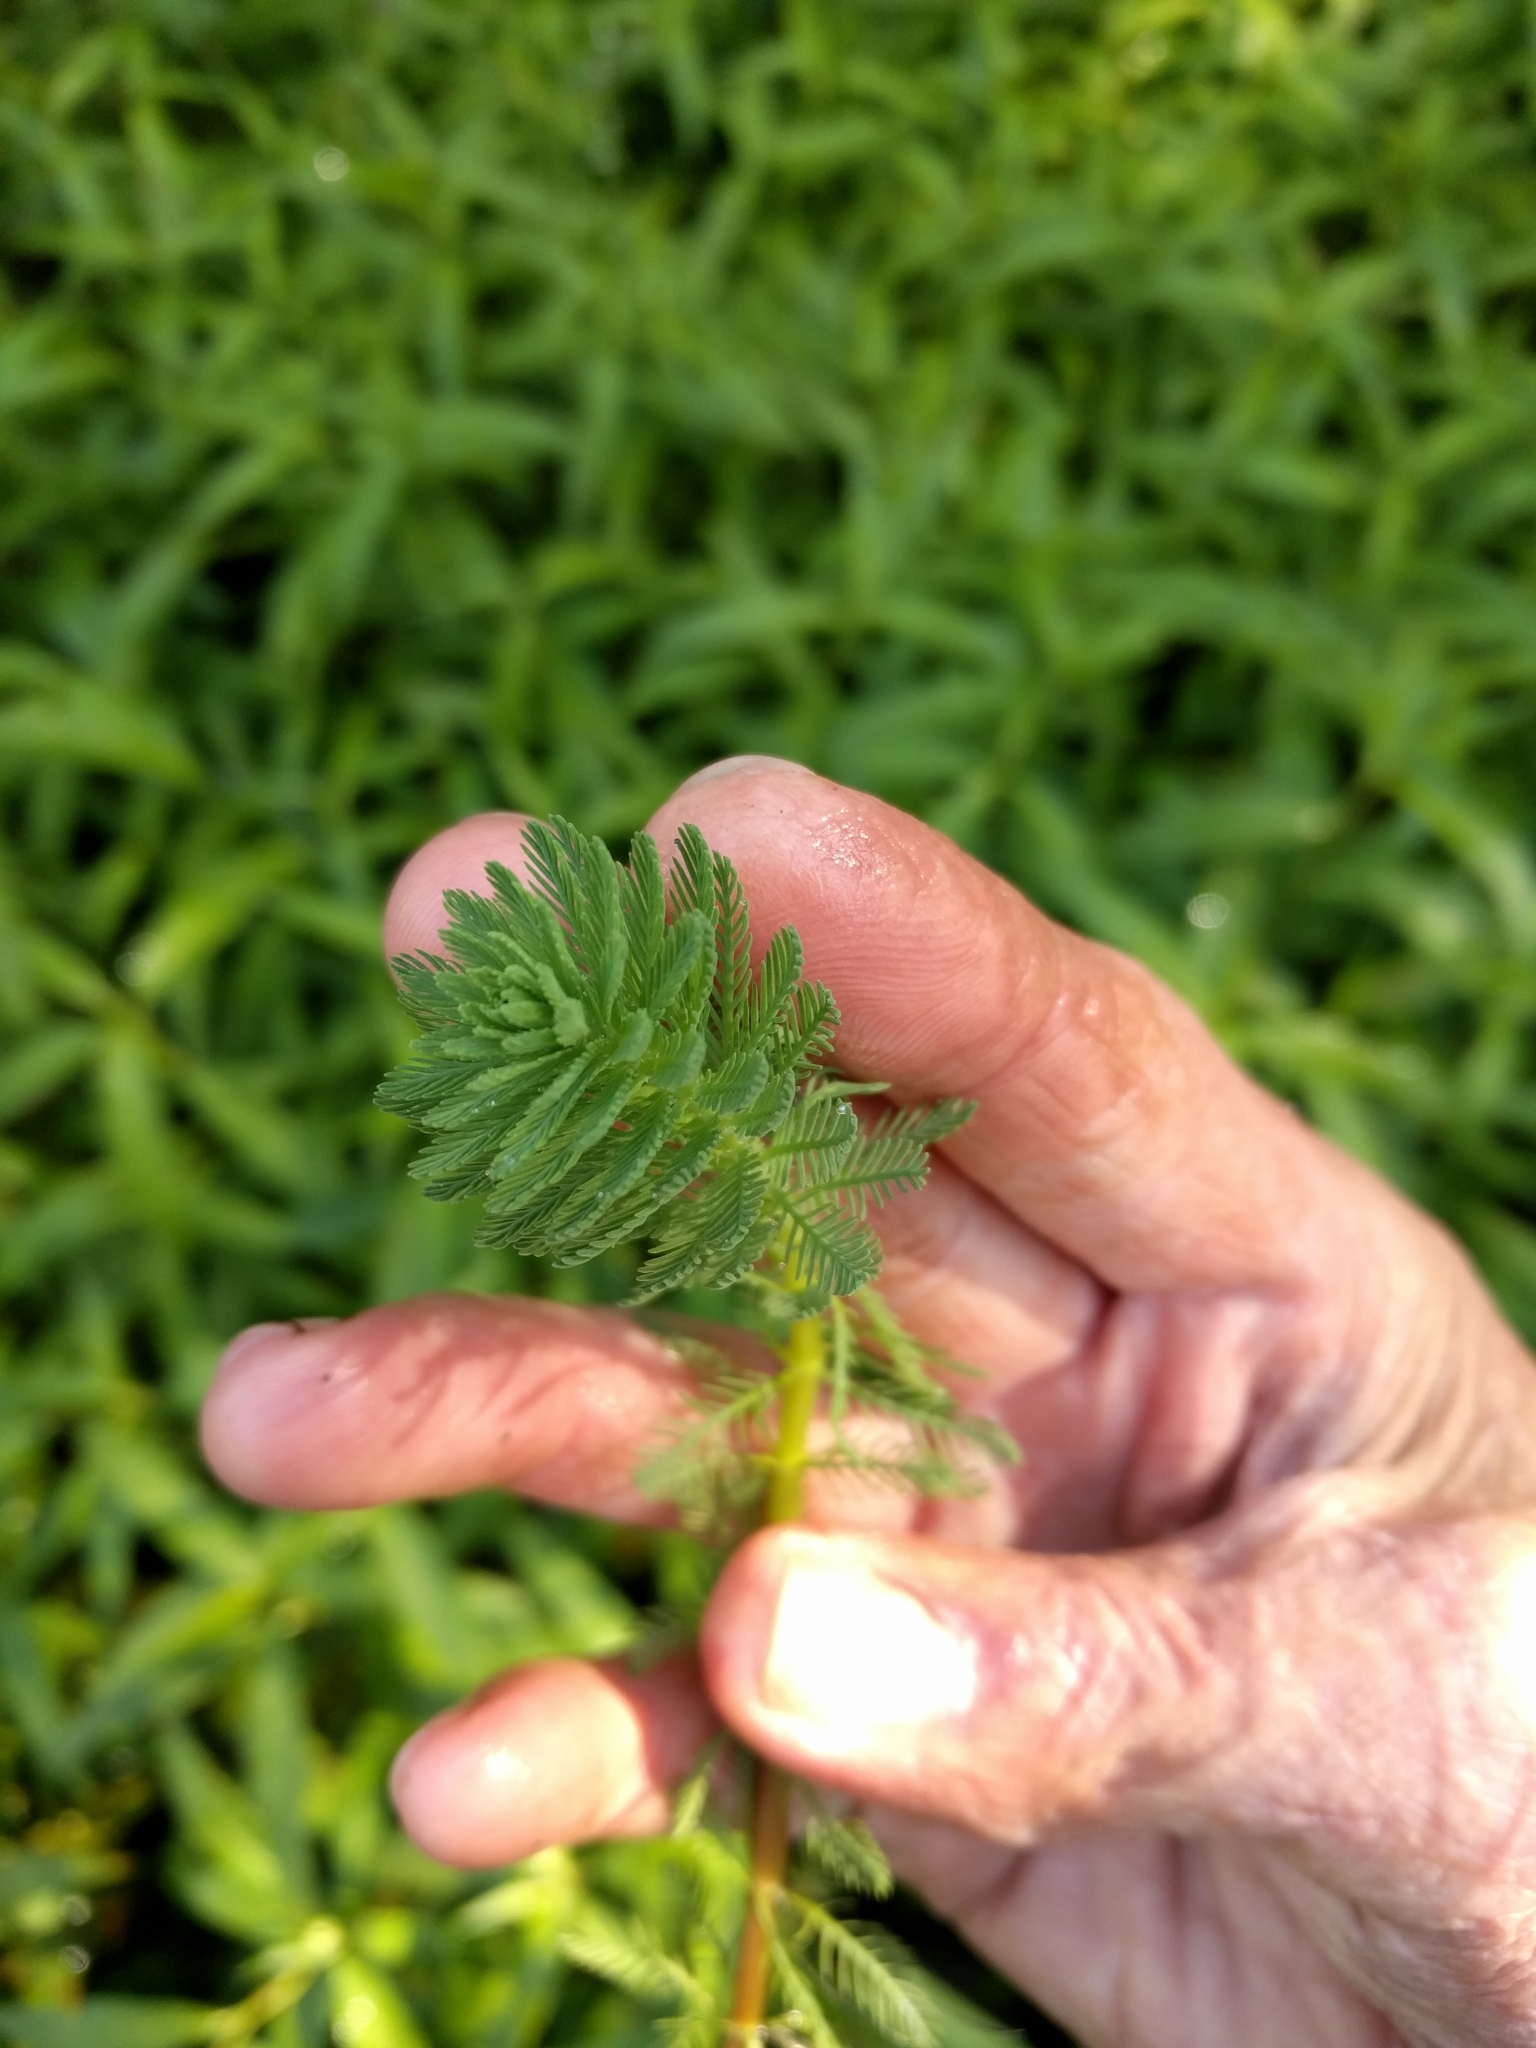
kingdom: Plantae
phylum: Tracheophyta
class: Magnoliopsida
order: Saxifragales
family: Haloragaceae
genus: Myriophyllum
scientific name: Myriophyllum aquaticum
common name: Parrot's feather
